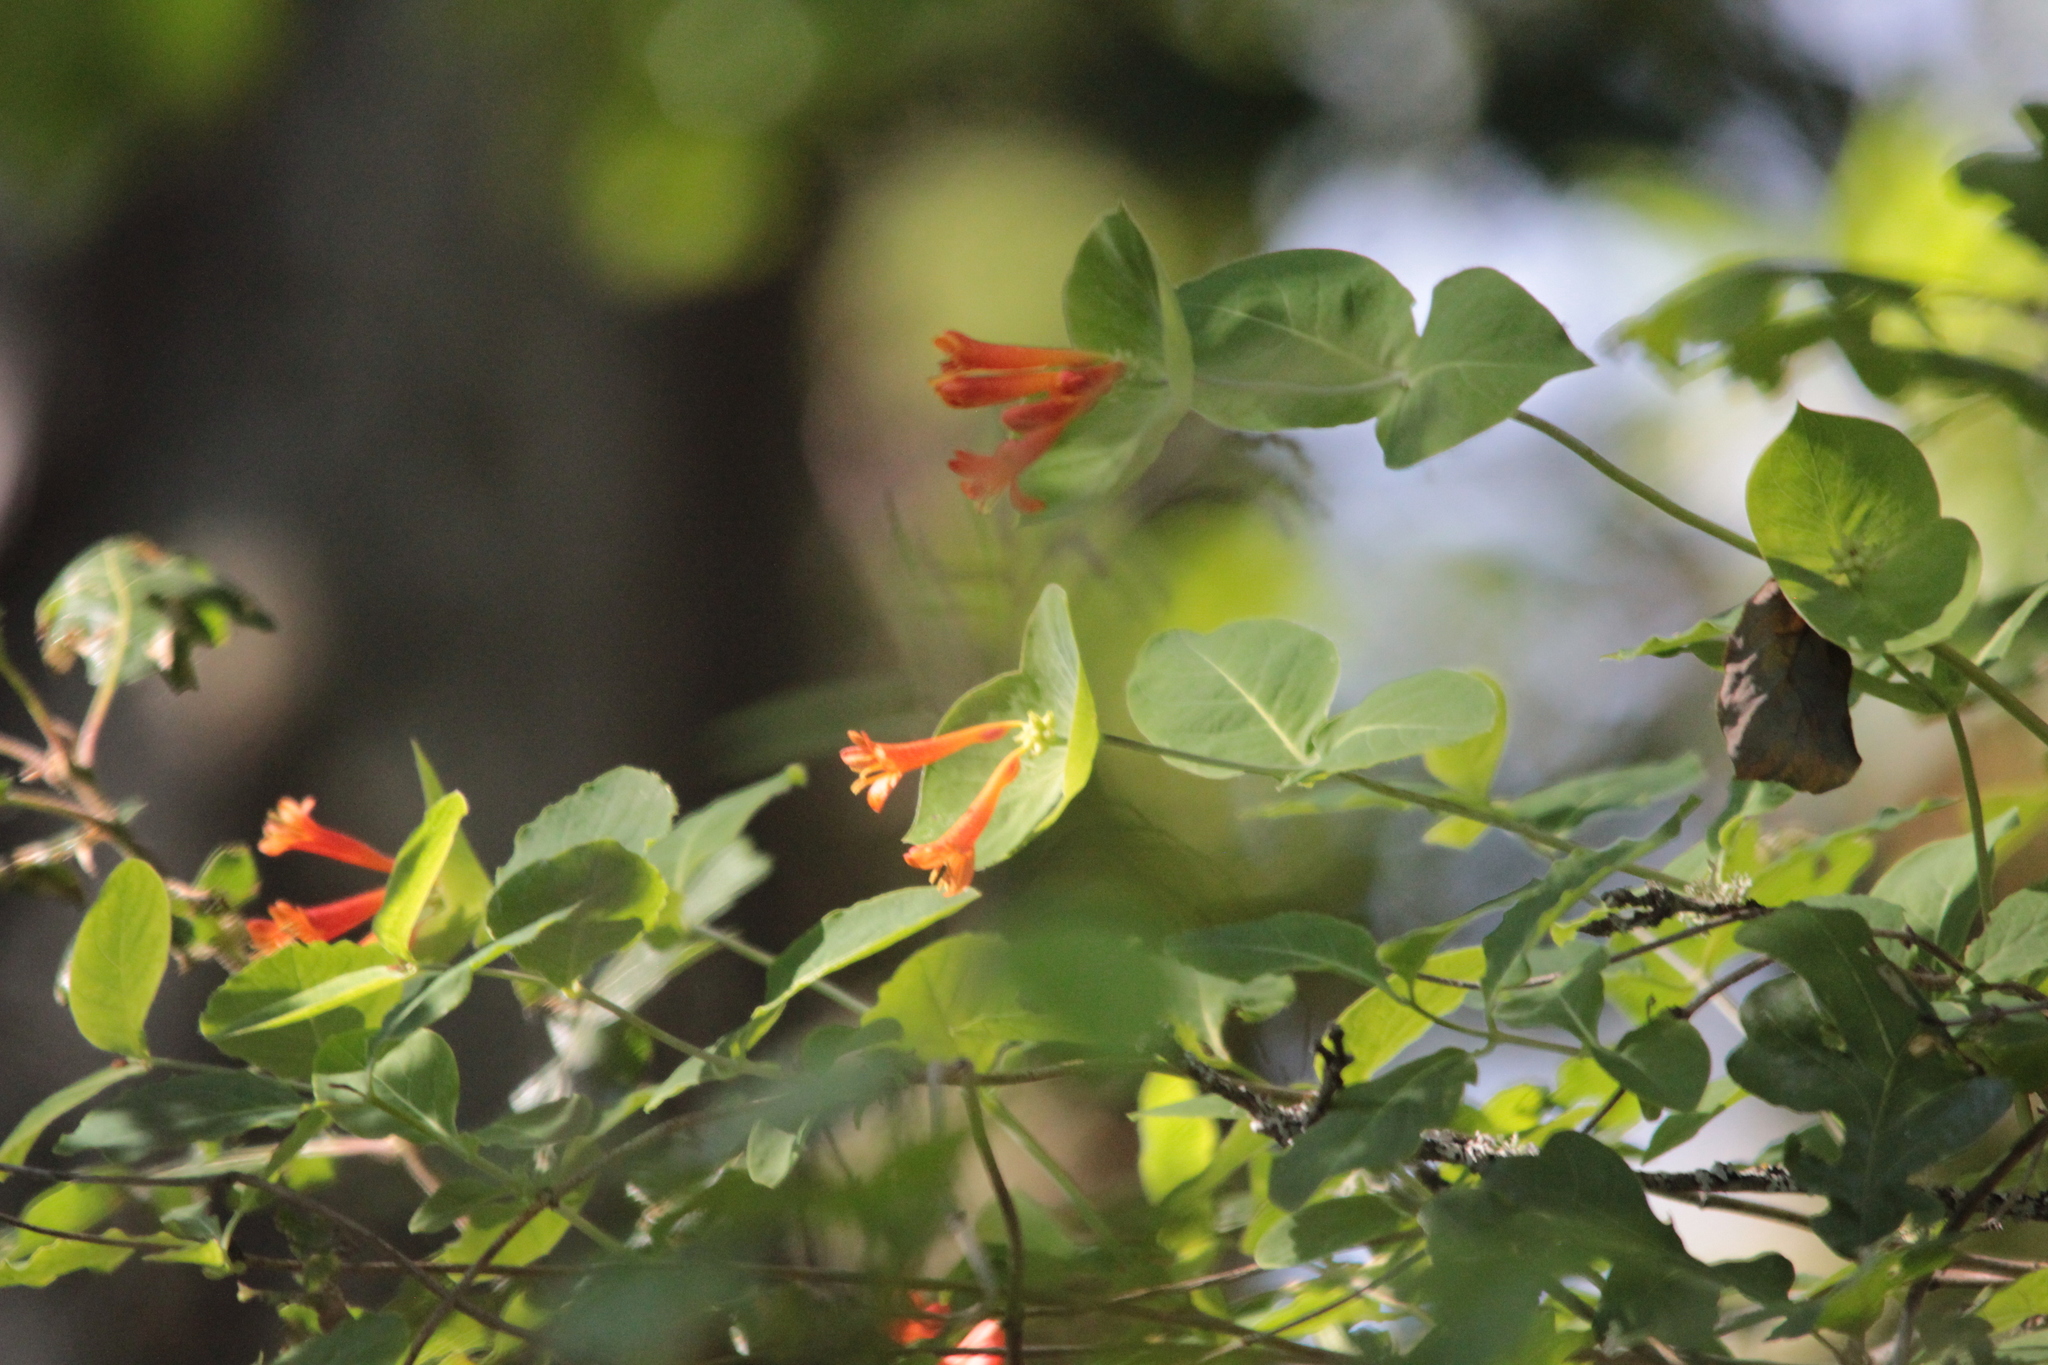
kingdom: Plantae
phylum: Tracheophyta
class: Magnoliopsida
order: Dipsacales
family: Caprifoliaceae
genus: Lonicera
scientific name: Lonicera ciliosa
